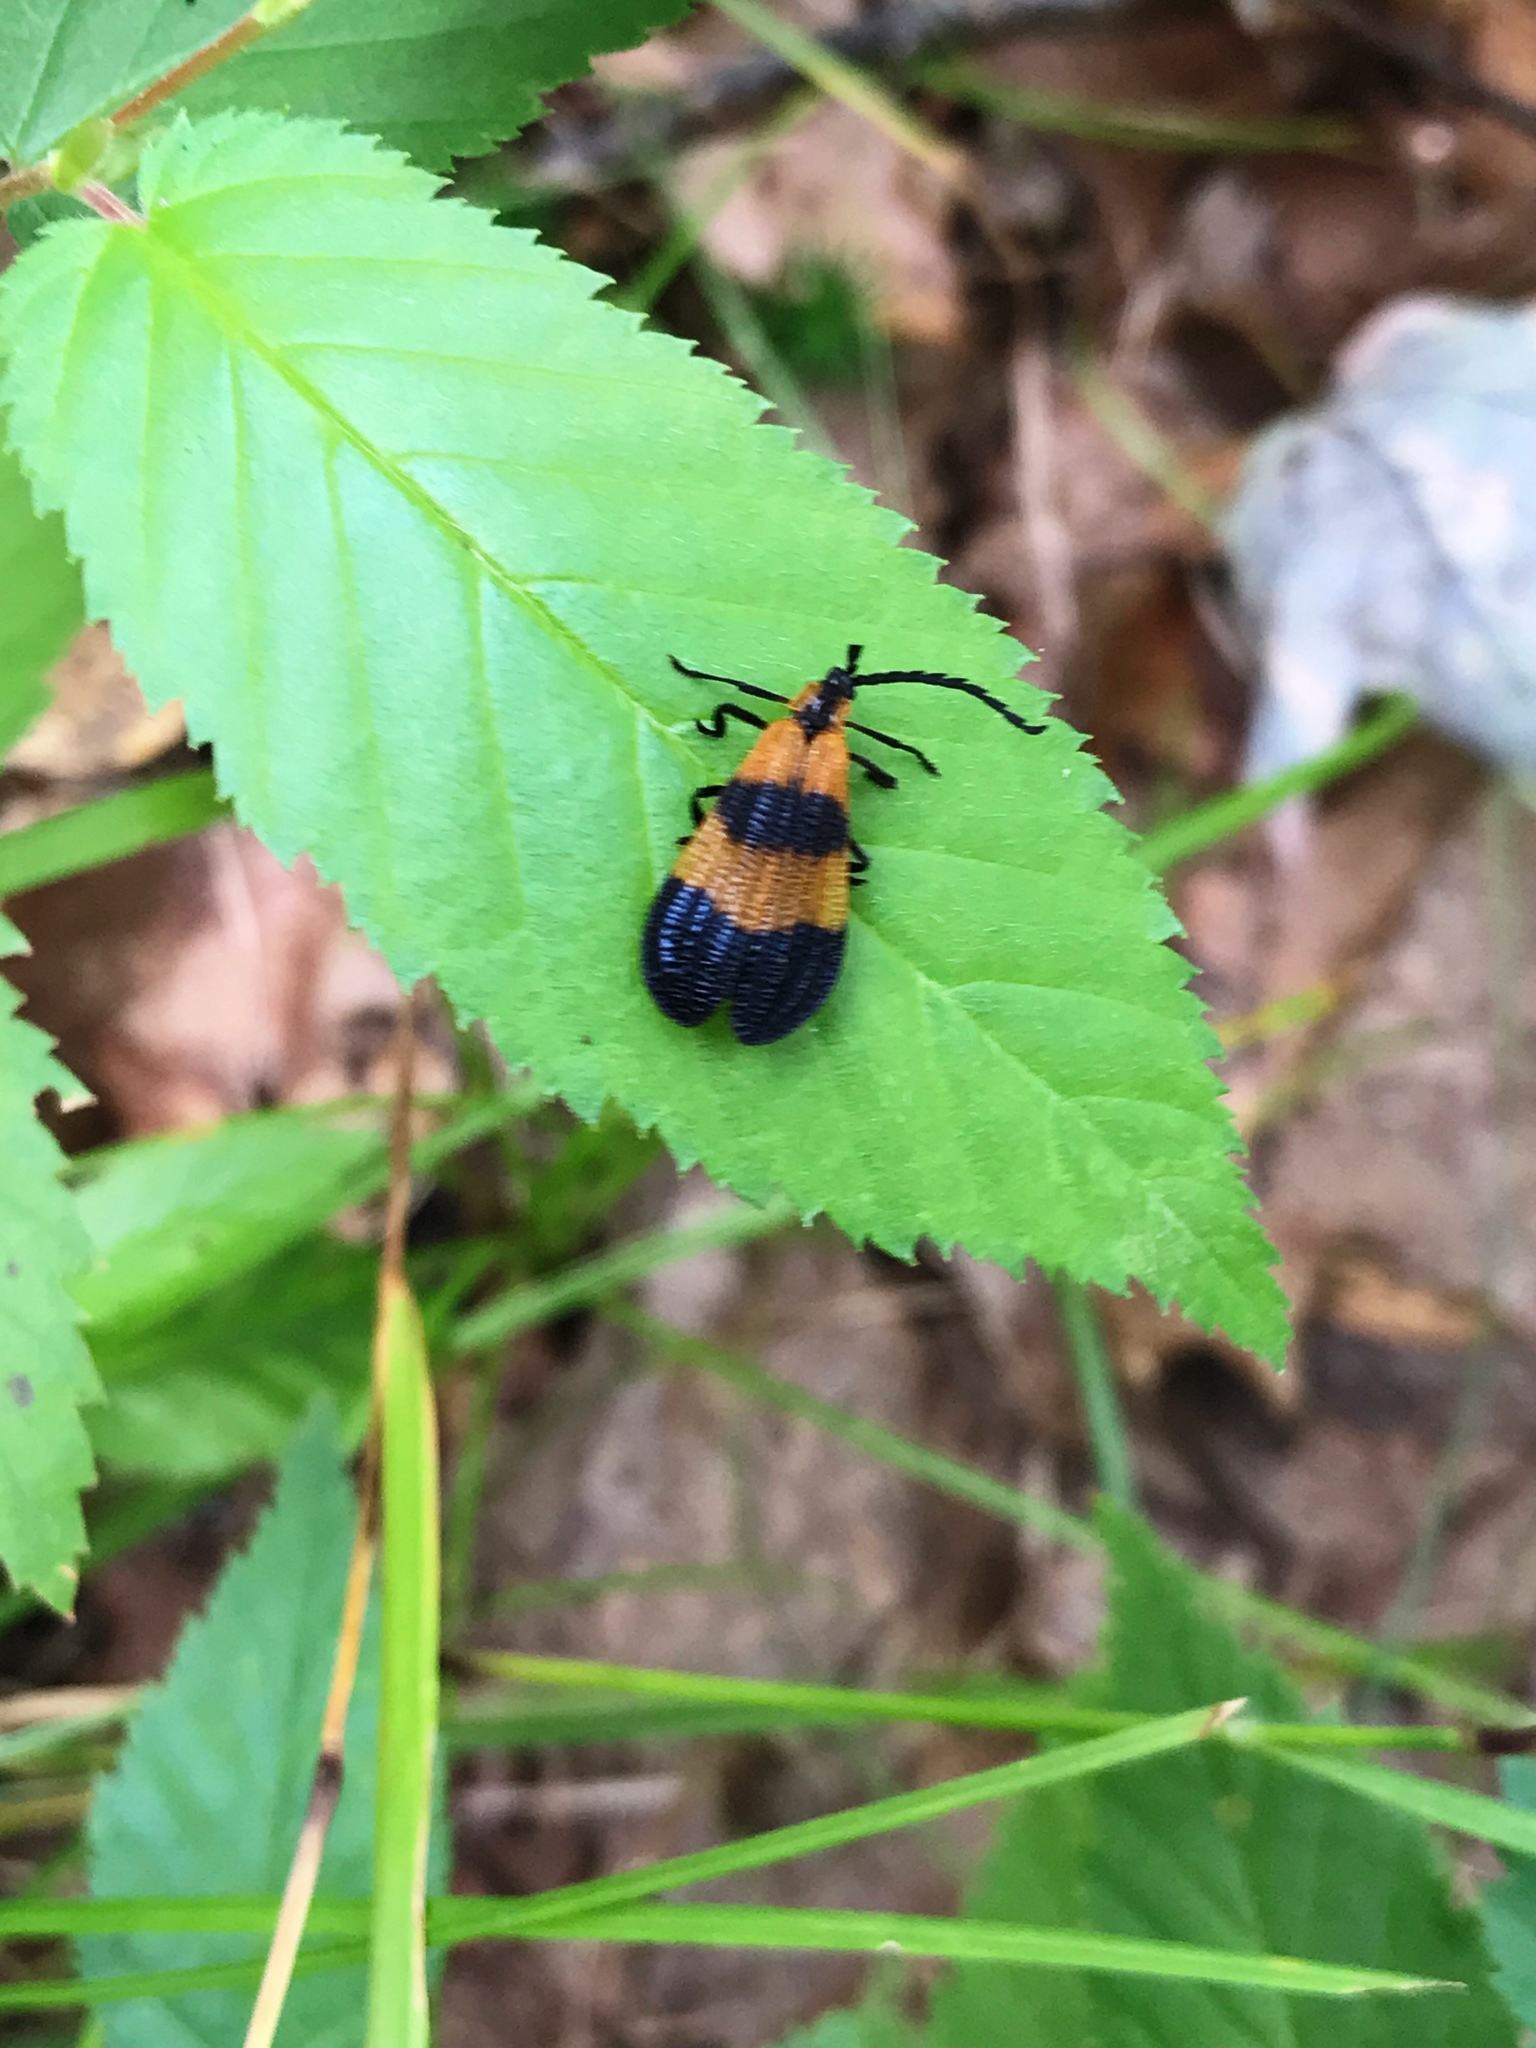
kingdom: Animalia
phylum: Arthropoda
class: Insecta
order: Coleoptera
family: Lycidae
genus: Calopteron
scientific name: Calopteron terminale
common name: End band net-winged beetle
